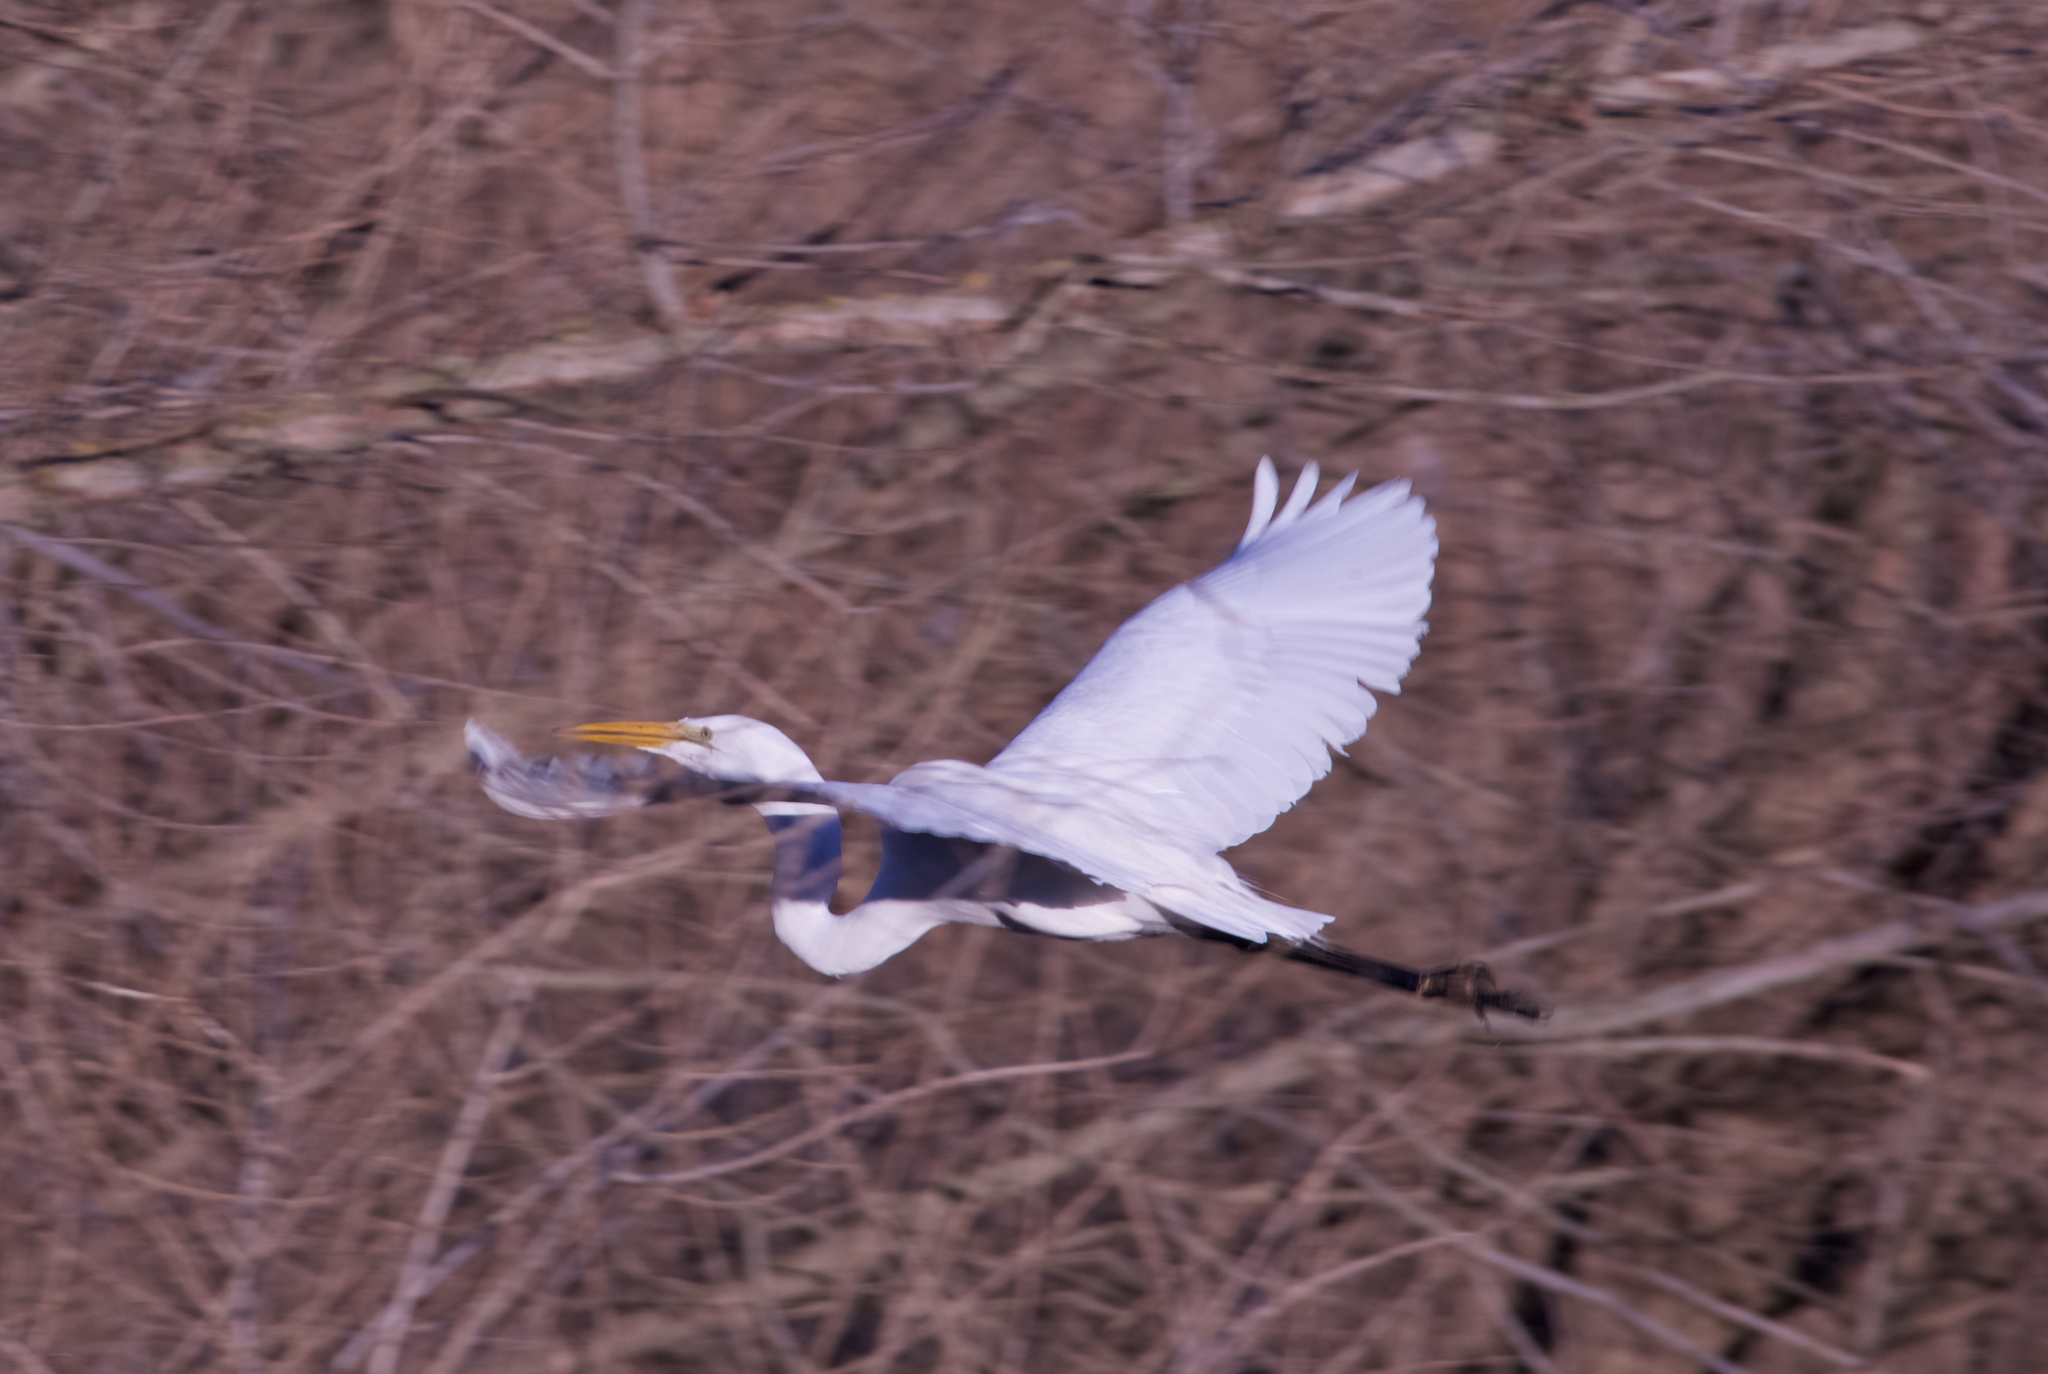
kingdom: Animalia
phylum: Chordata
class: Aves
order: Pelecaniformes
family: Ardeidae
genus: Ardea
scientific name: Ardea alba
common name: Great egret
